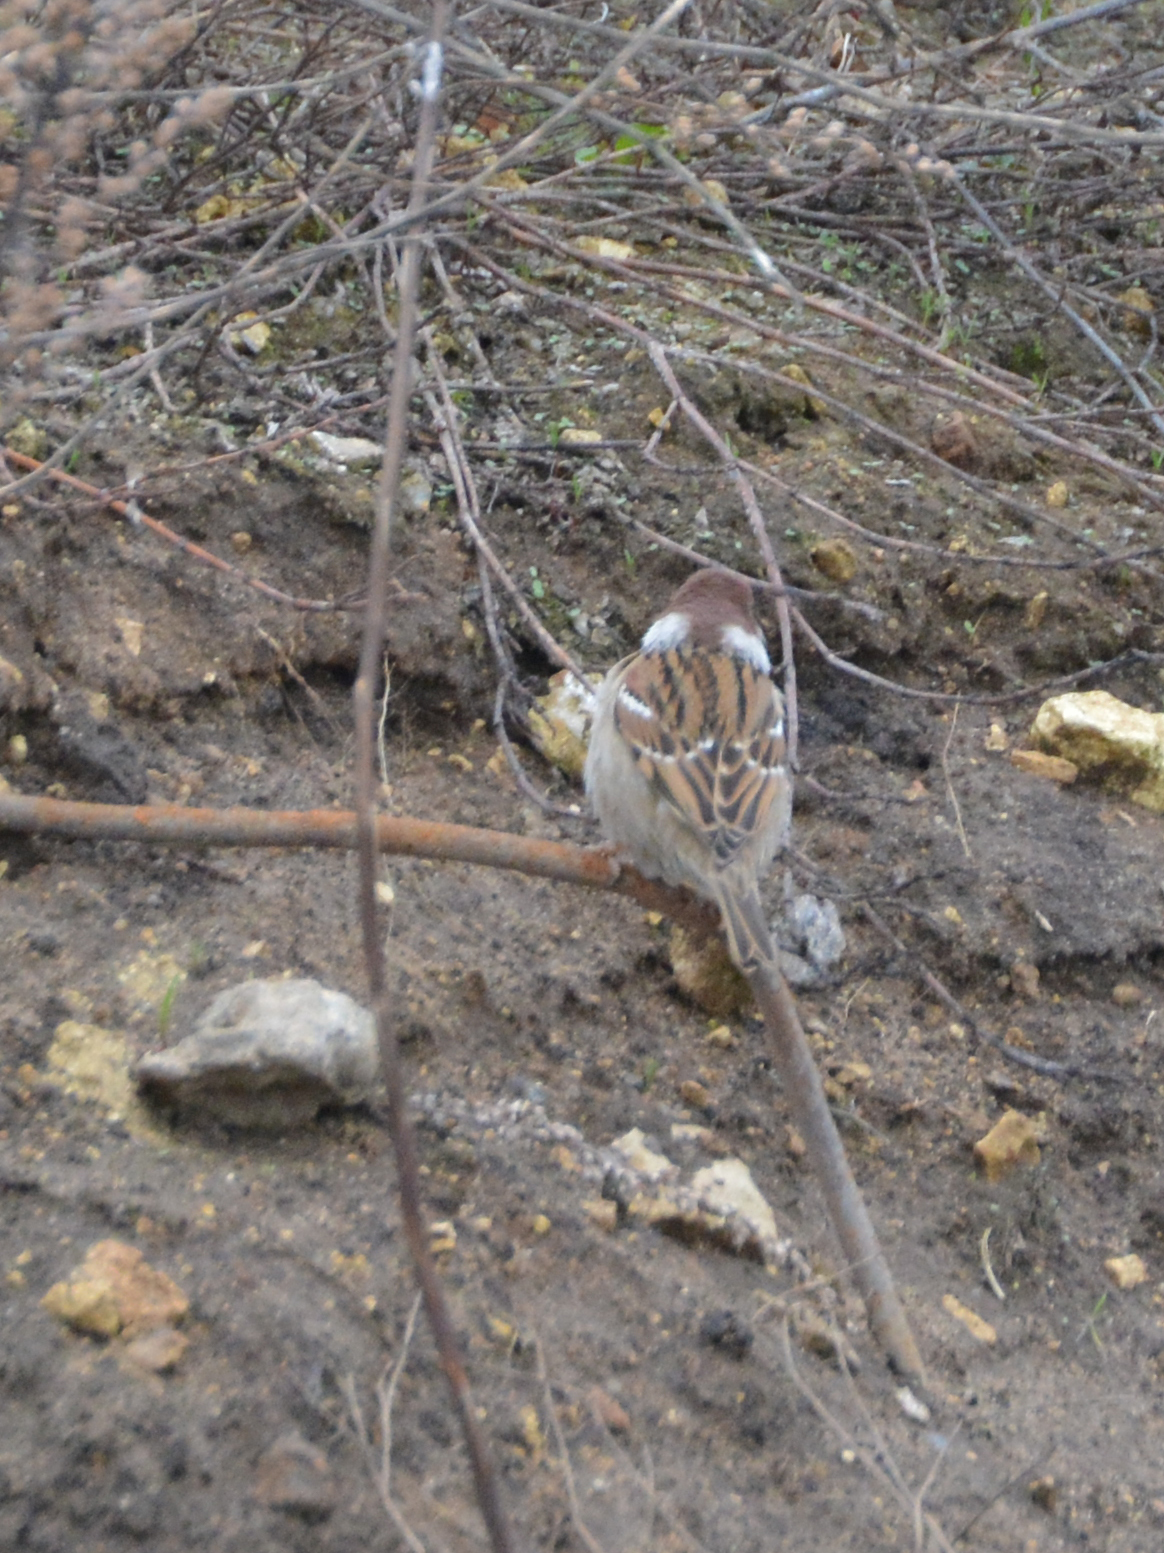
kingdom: Animalia
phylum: Chordata
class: Aves
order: Passeriformes
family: Passeridae
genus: Passer
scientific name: Passer montanus
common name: Eurasian tree sparrow
